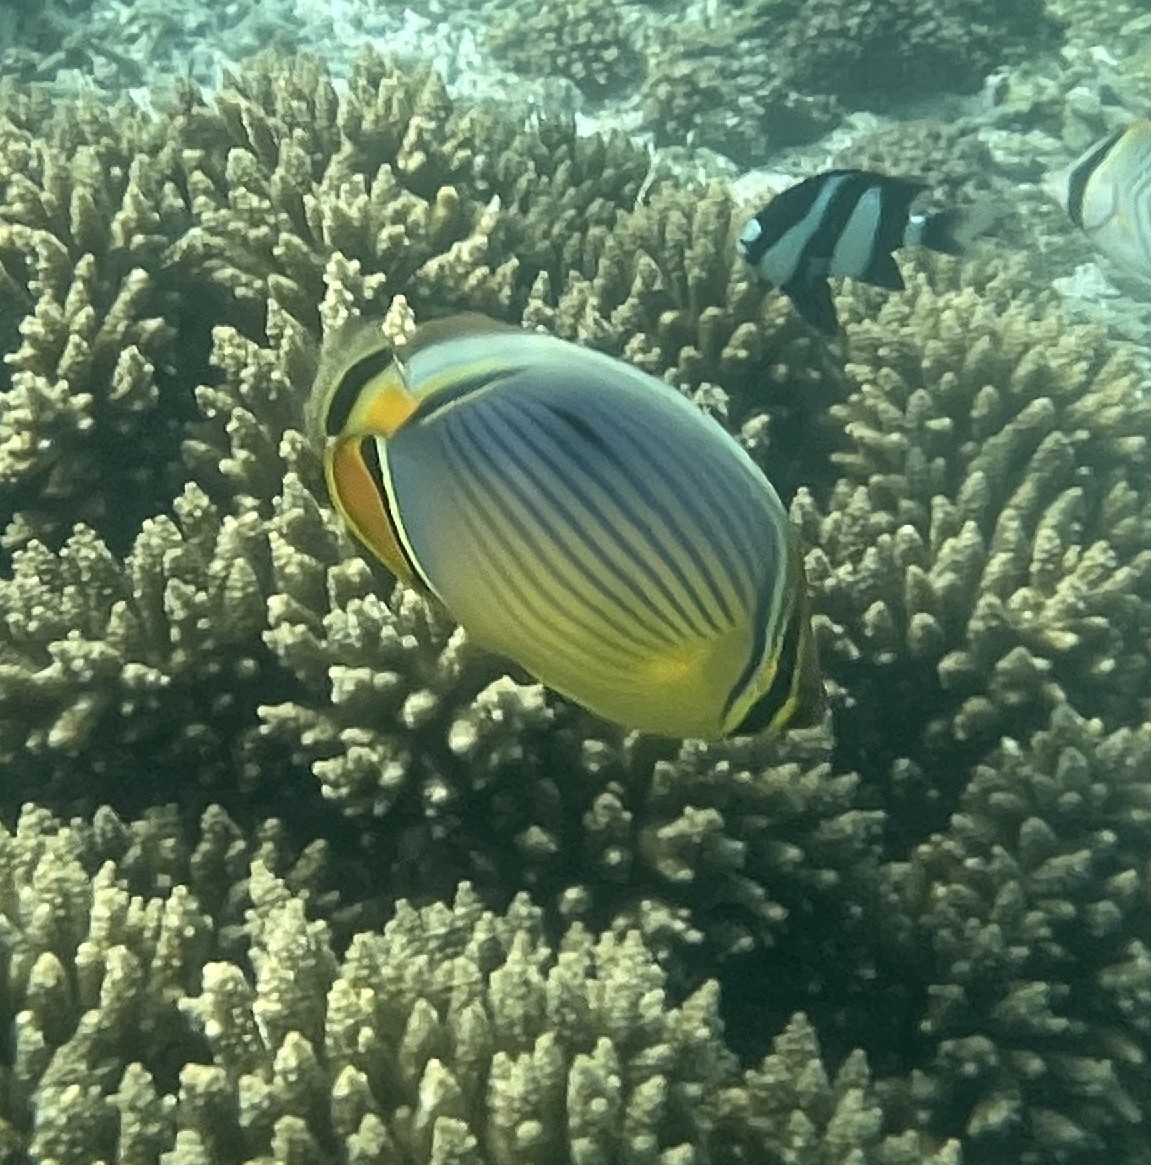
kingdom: Animalia
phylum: Chordata
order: Perciformes
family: Chaetodontidae
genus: Chaetodon
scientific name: Chaetodon trifasciatus
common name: Redfin butterflyfish
